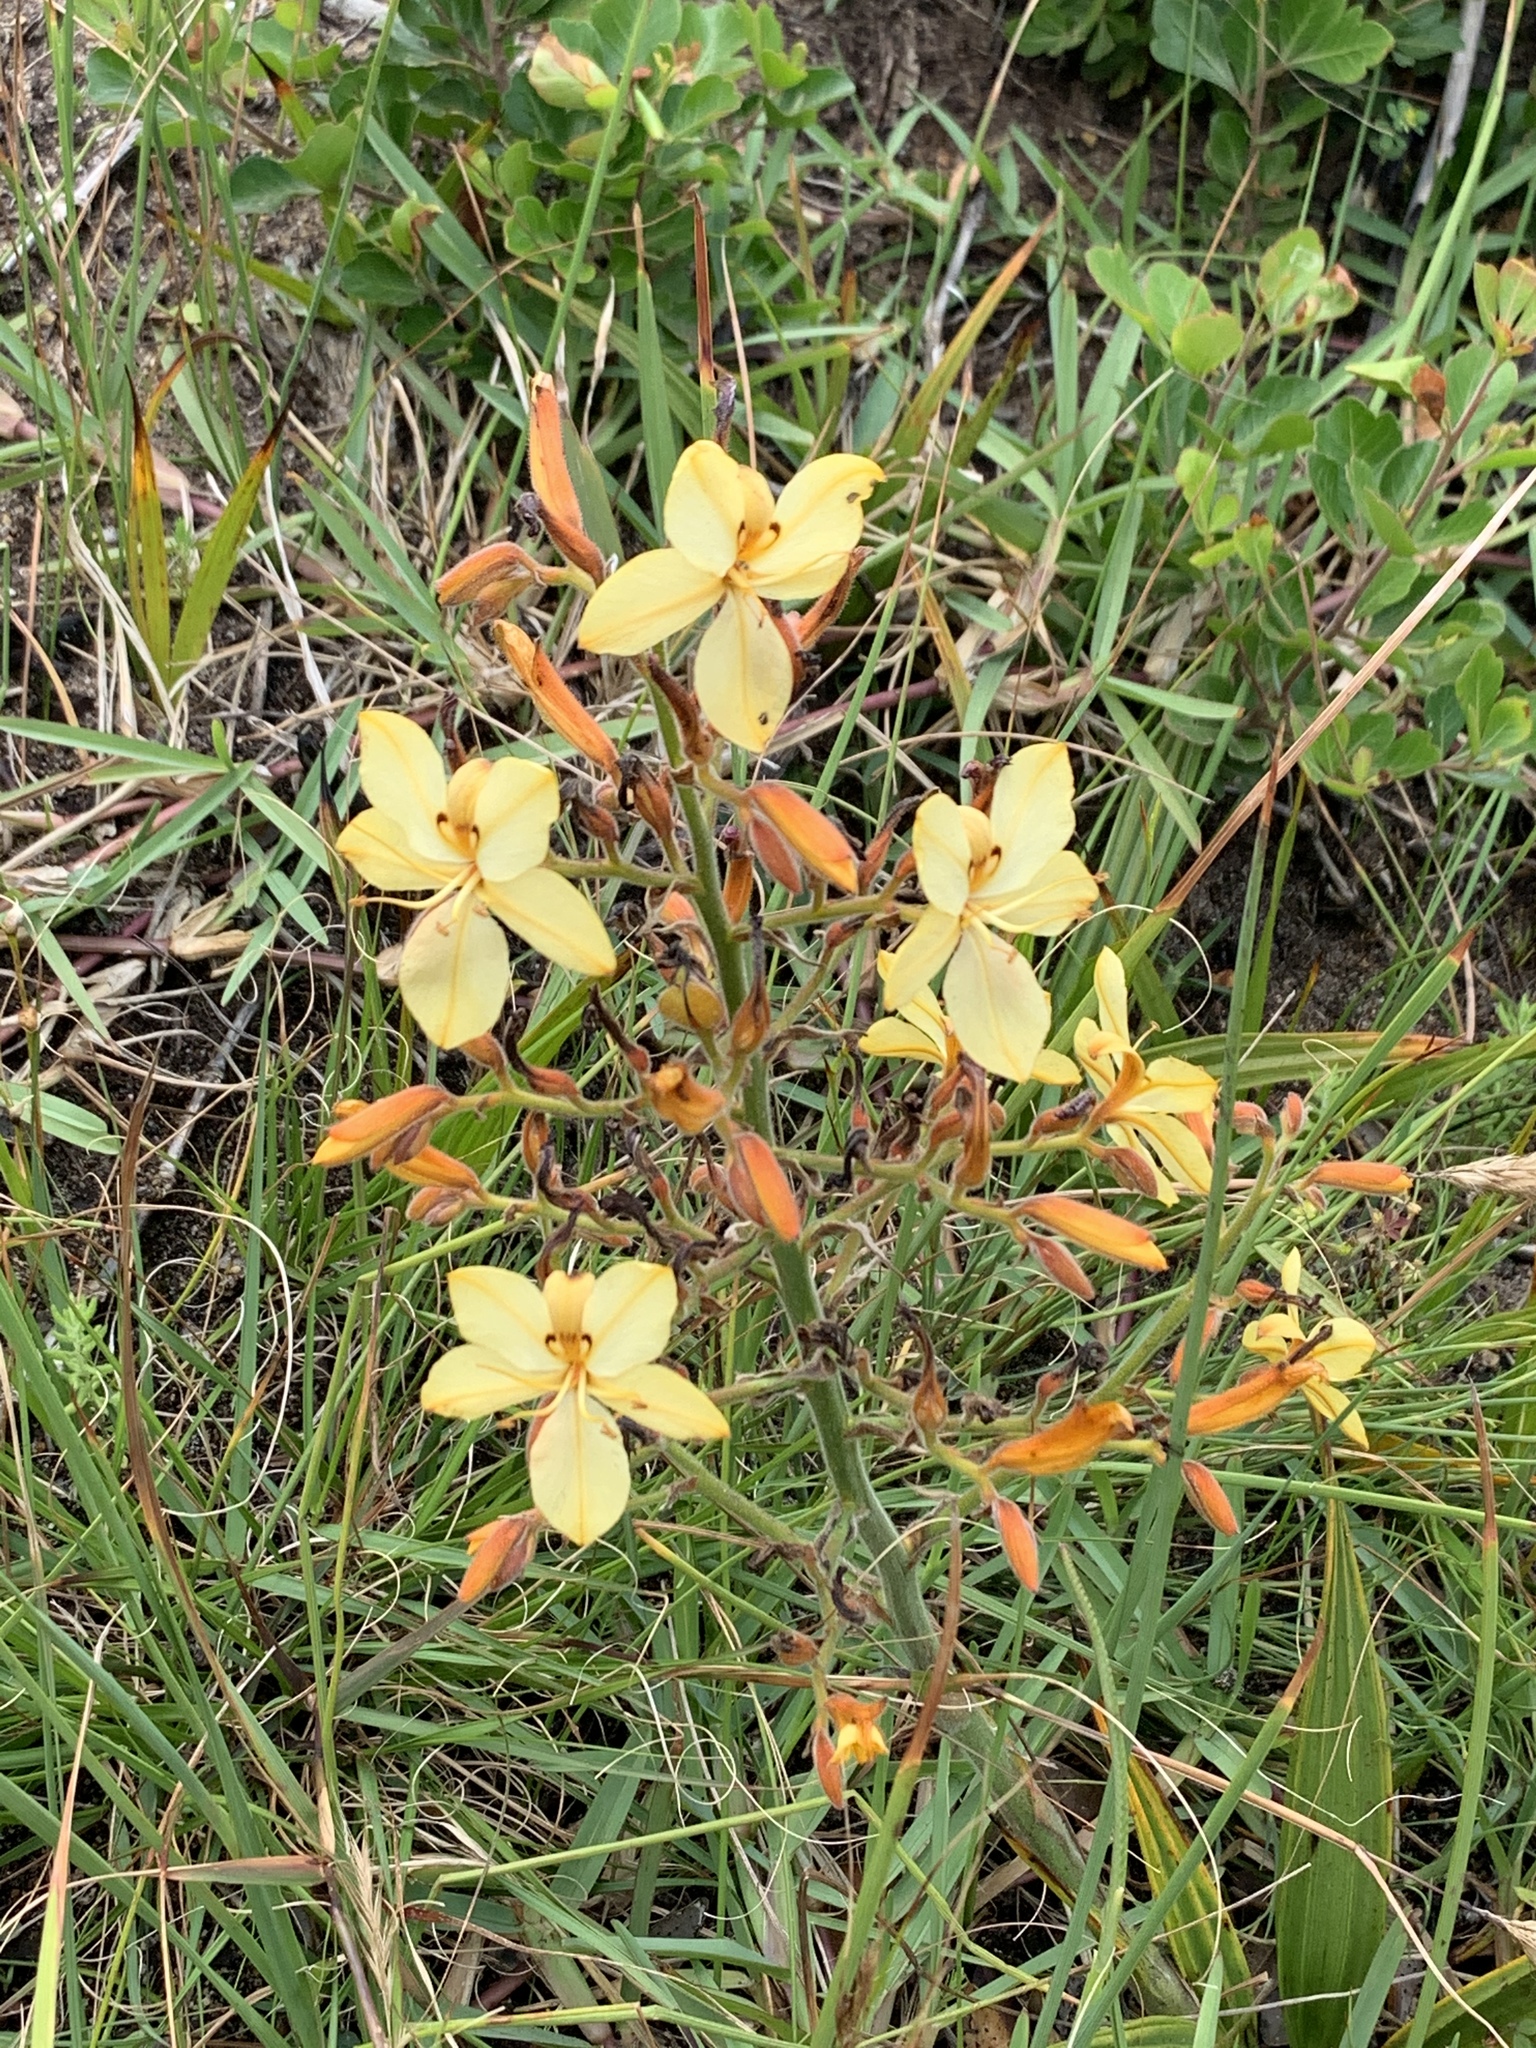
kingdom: Plantae
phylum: Tracheophyta
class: Liliopsida
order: Commelinales
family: Haemodoraceae
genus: Wachendorfia
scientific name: Wachendorfia paniculata
